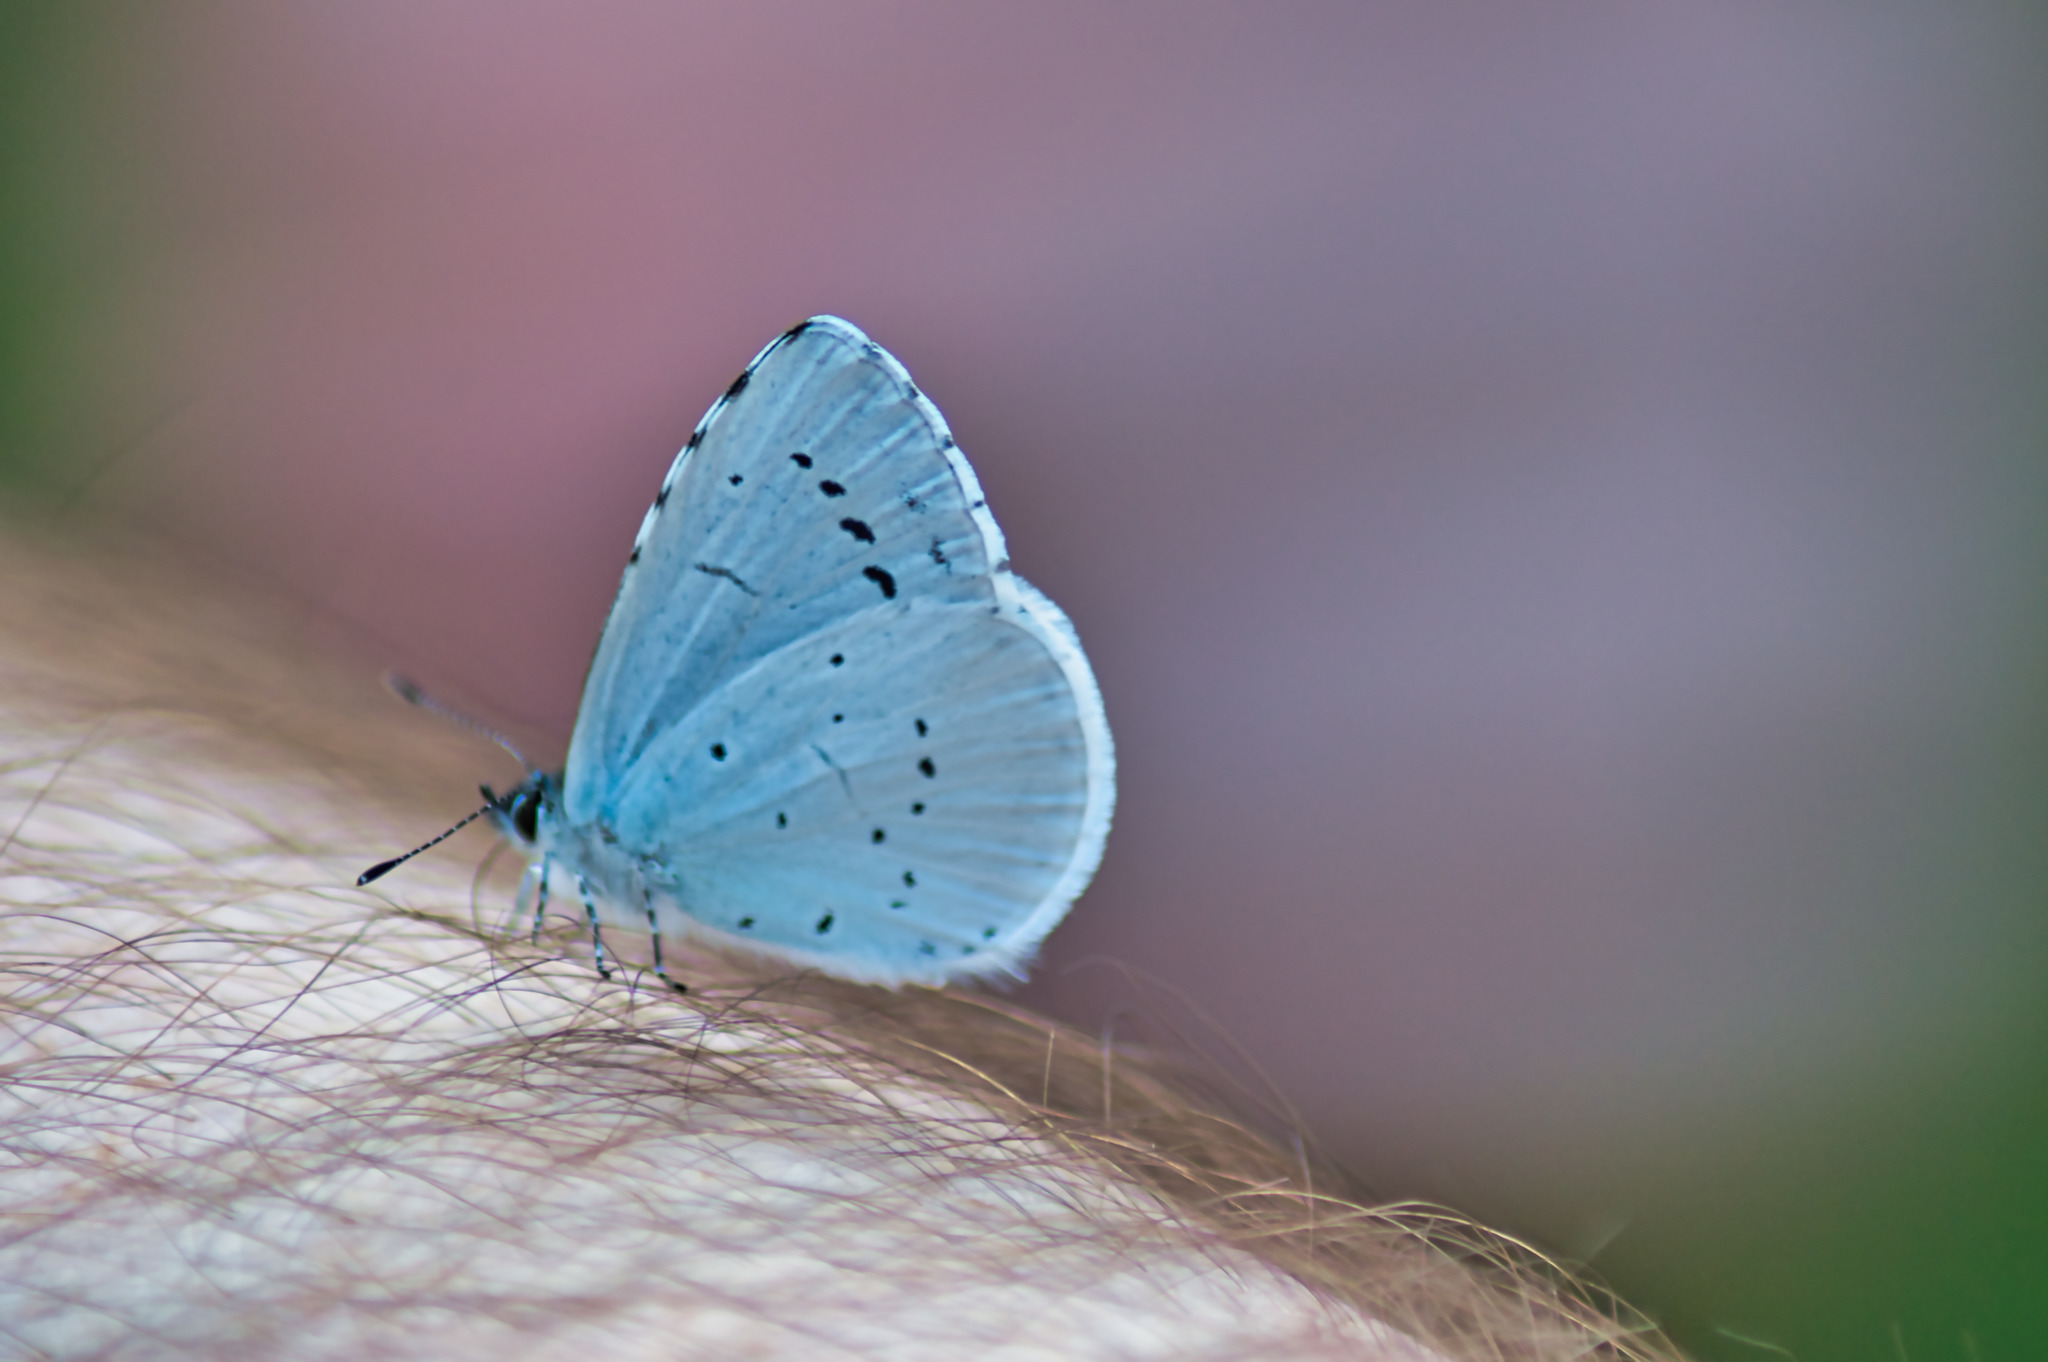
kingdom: Animalia
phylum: Arthropoda
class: Insecta
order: Lepidoptera
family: Lycaenidae
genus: Celastrina
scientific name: Celastrina argiolus
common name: Holly blue
